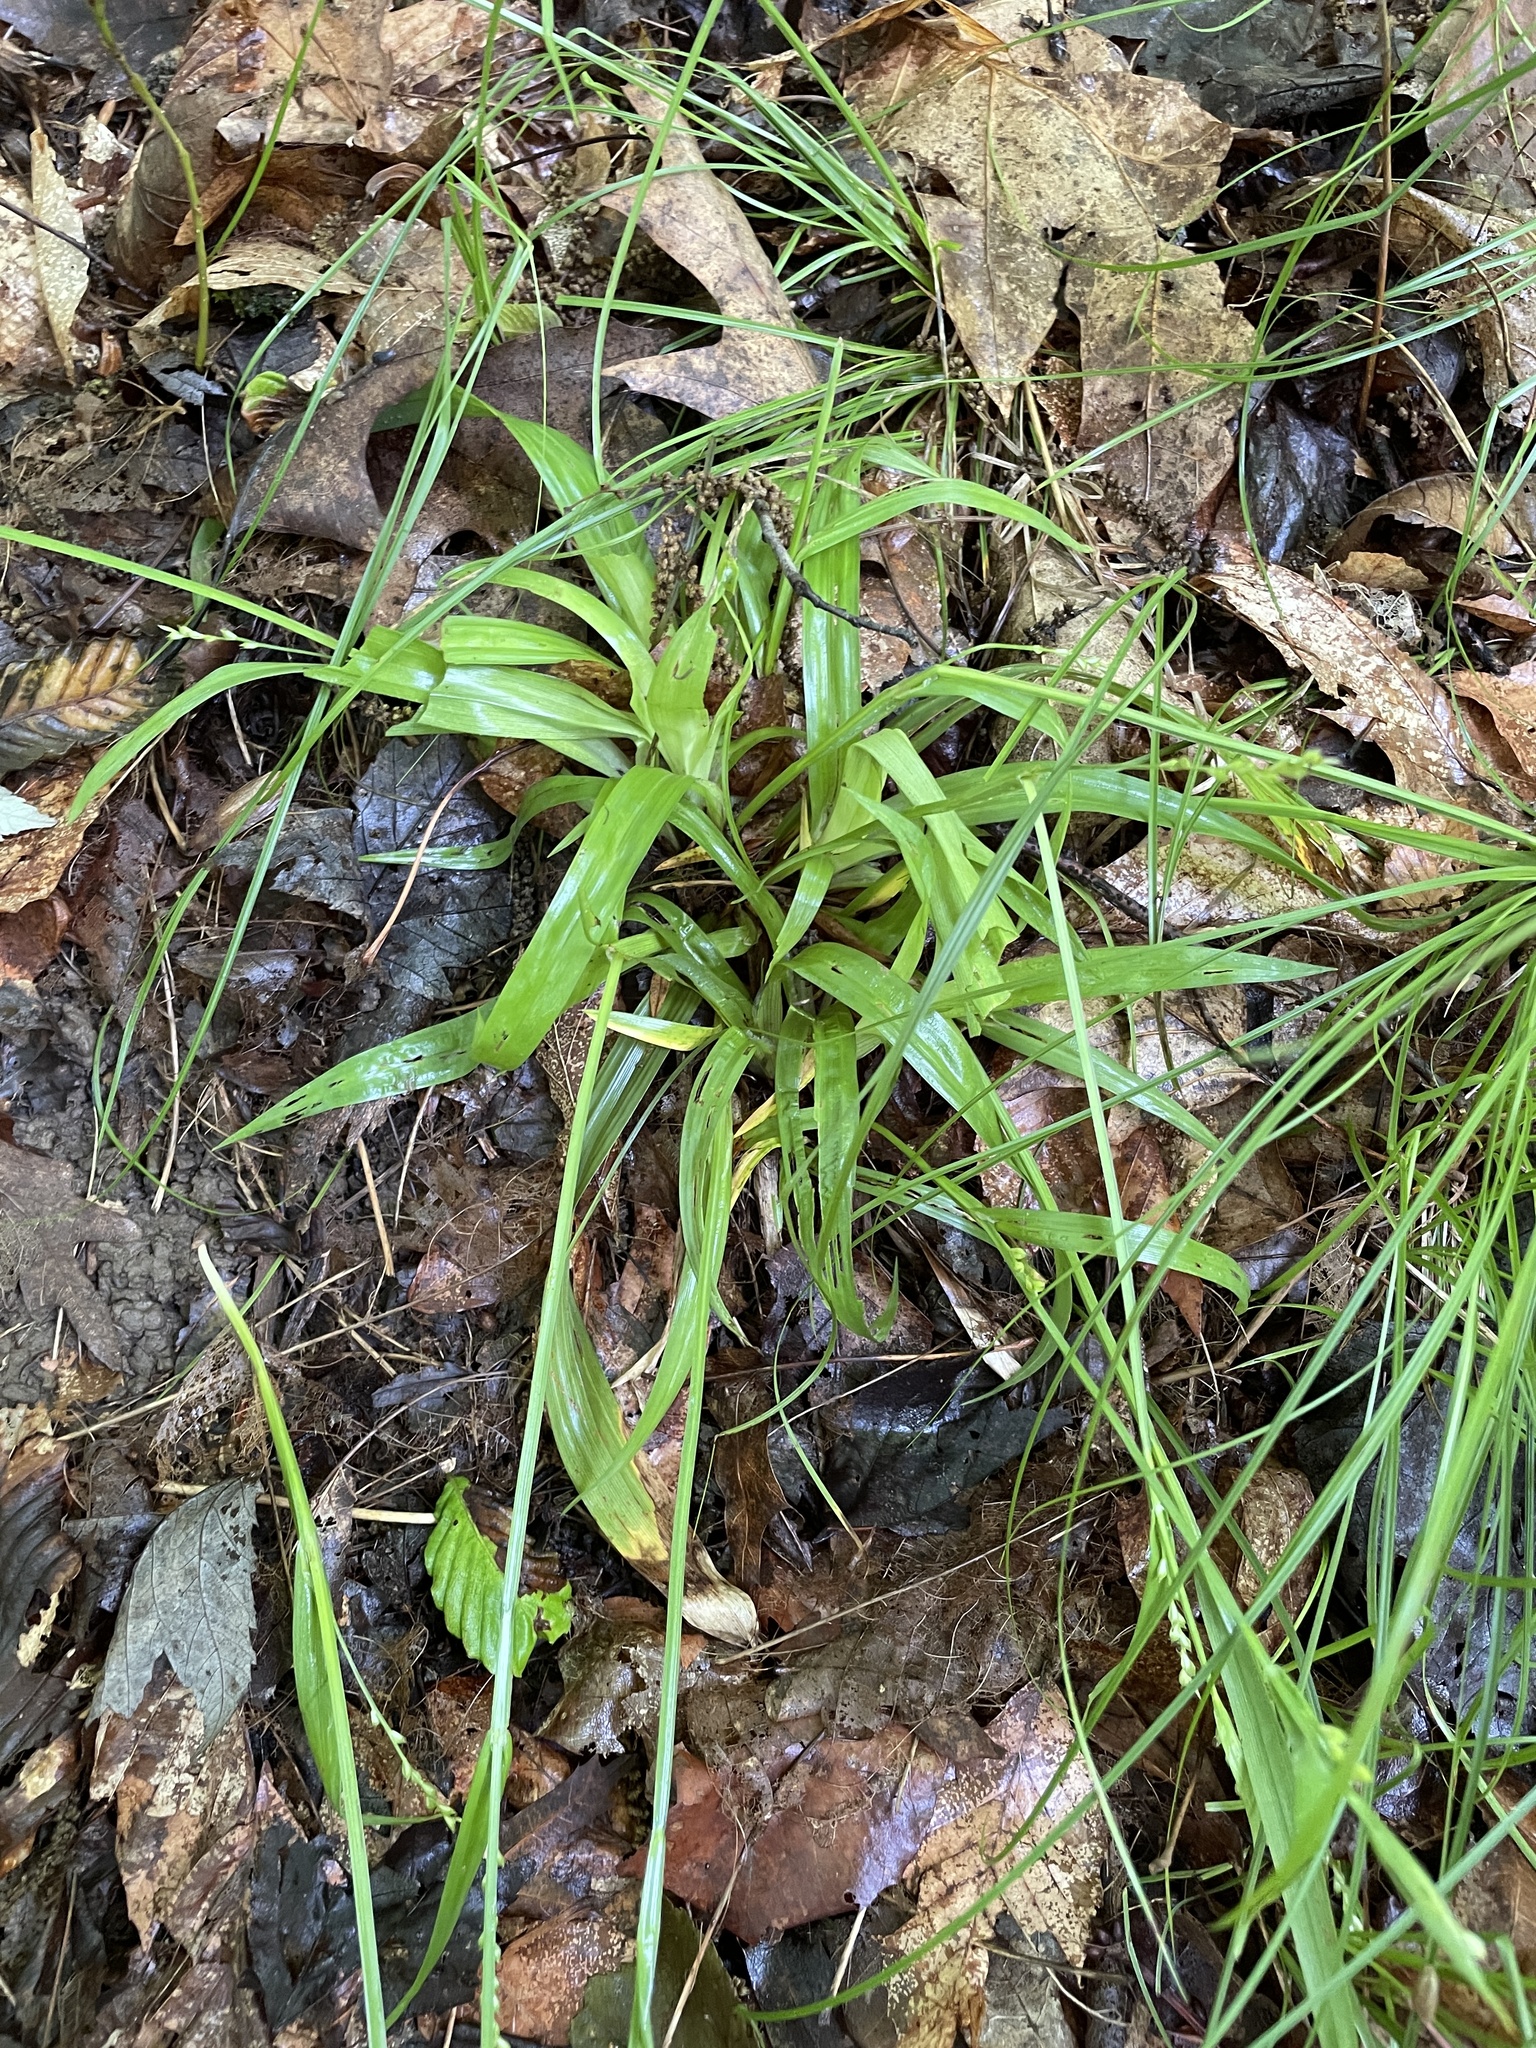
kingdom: Plantae
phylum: Tracheophyta
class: Liliopsida
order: Poales
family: Cyperaceae
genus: Carex
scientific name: Carex leptonervia
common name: Few-nerved wood sedge
